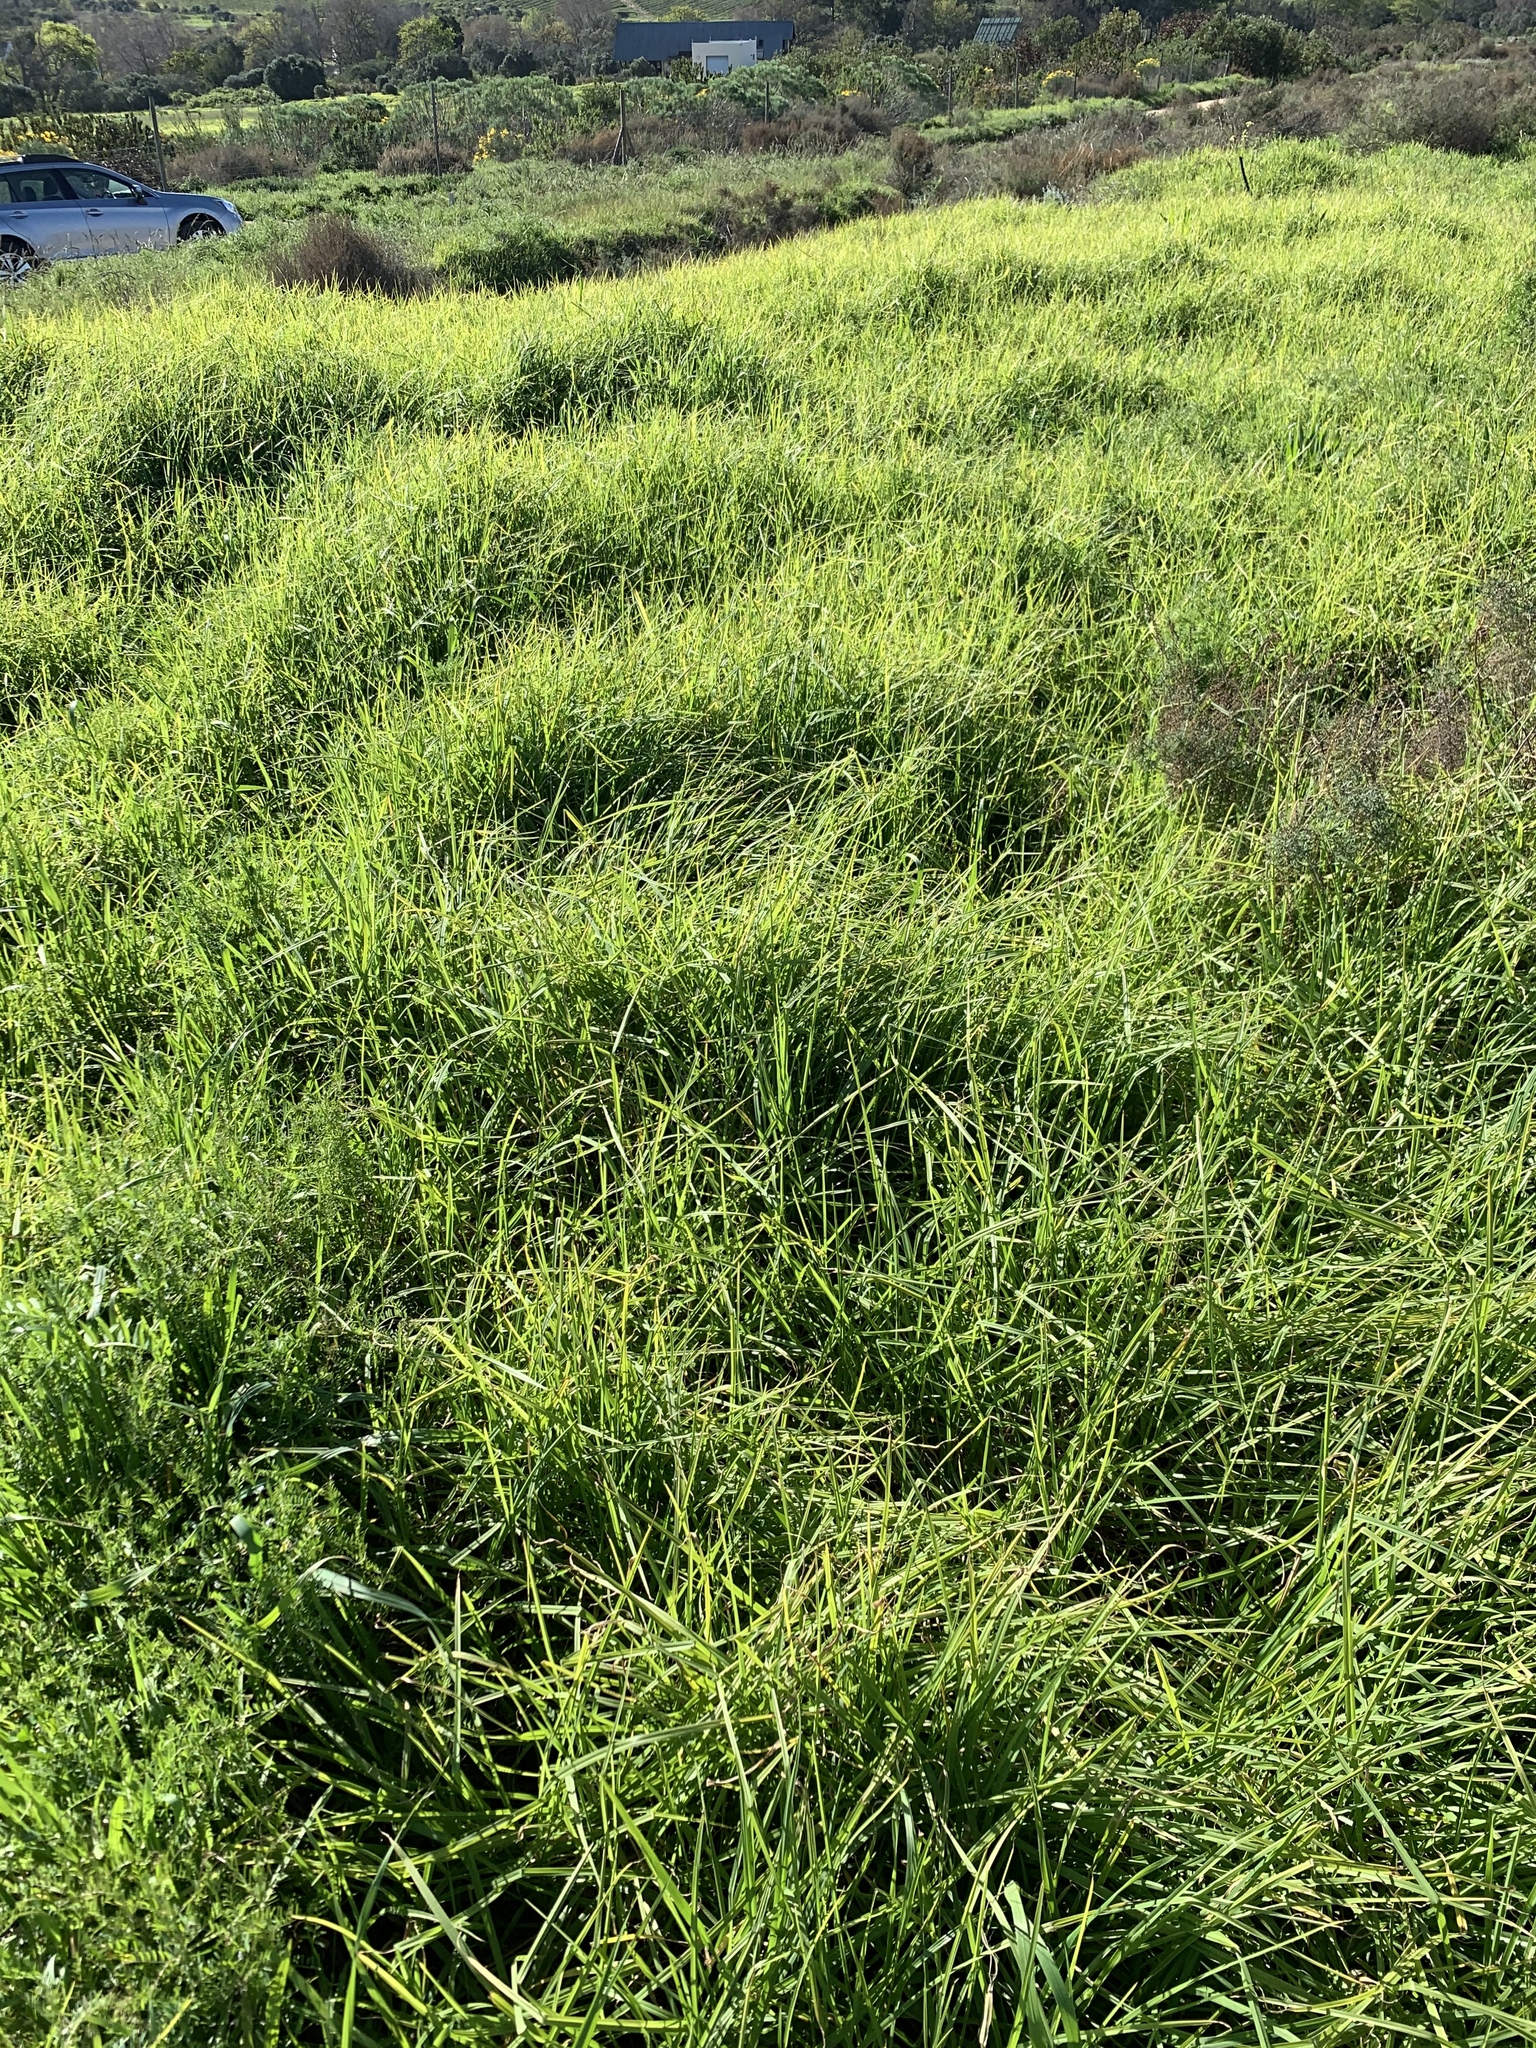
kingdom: Plantae
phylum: Tracheophyta
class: Liliopsida
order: Poales
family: Poaceae
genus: Cenchrus
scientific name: Cenchrus clandestinus
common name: Kikuyugrass
